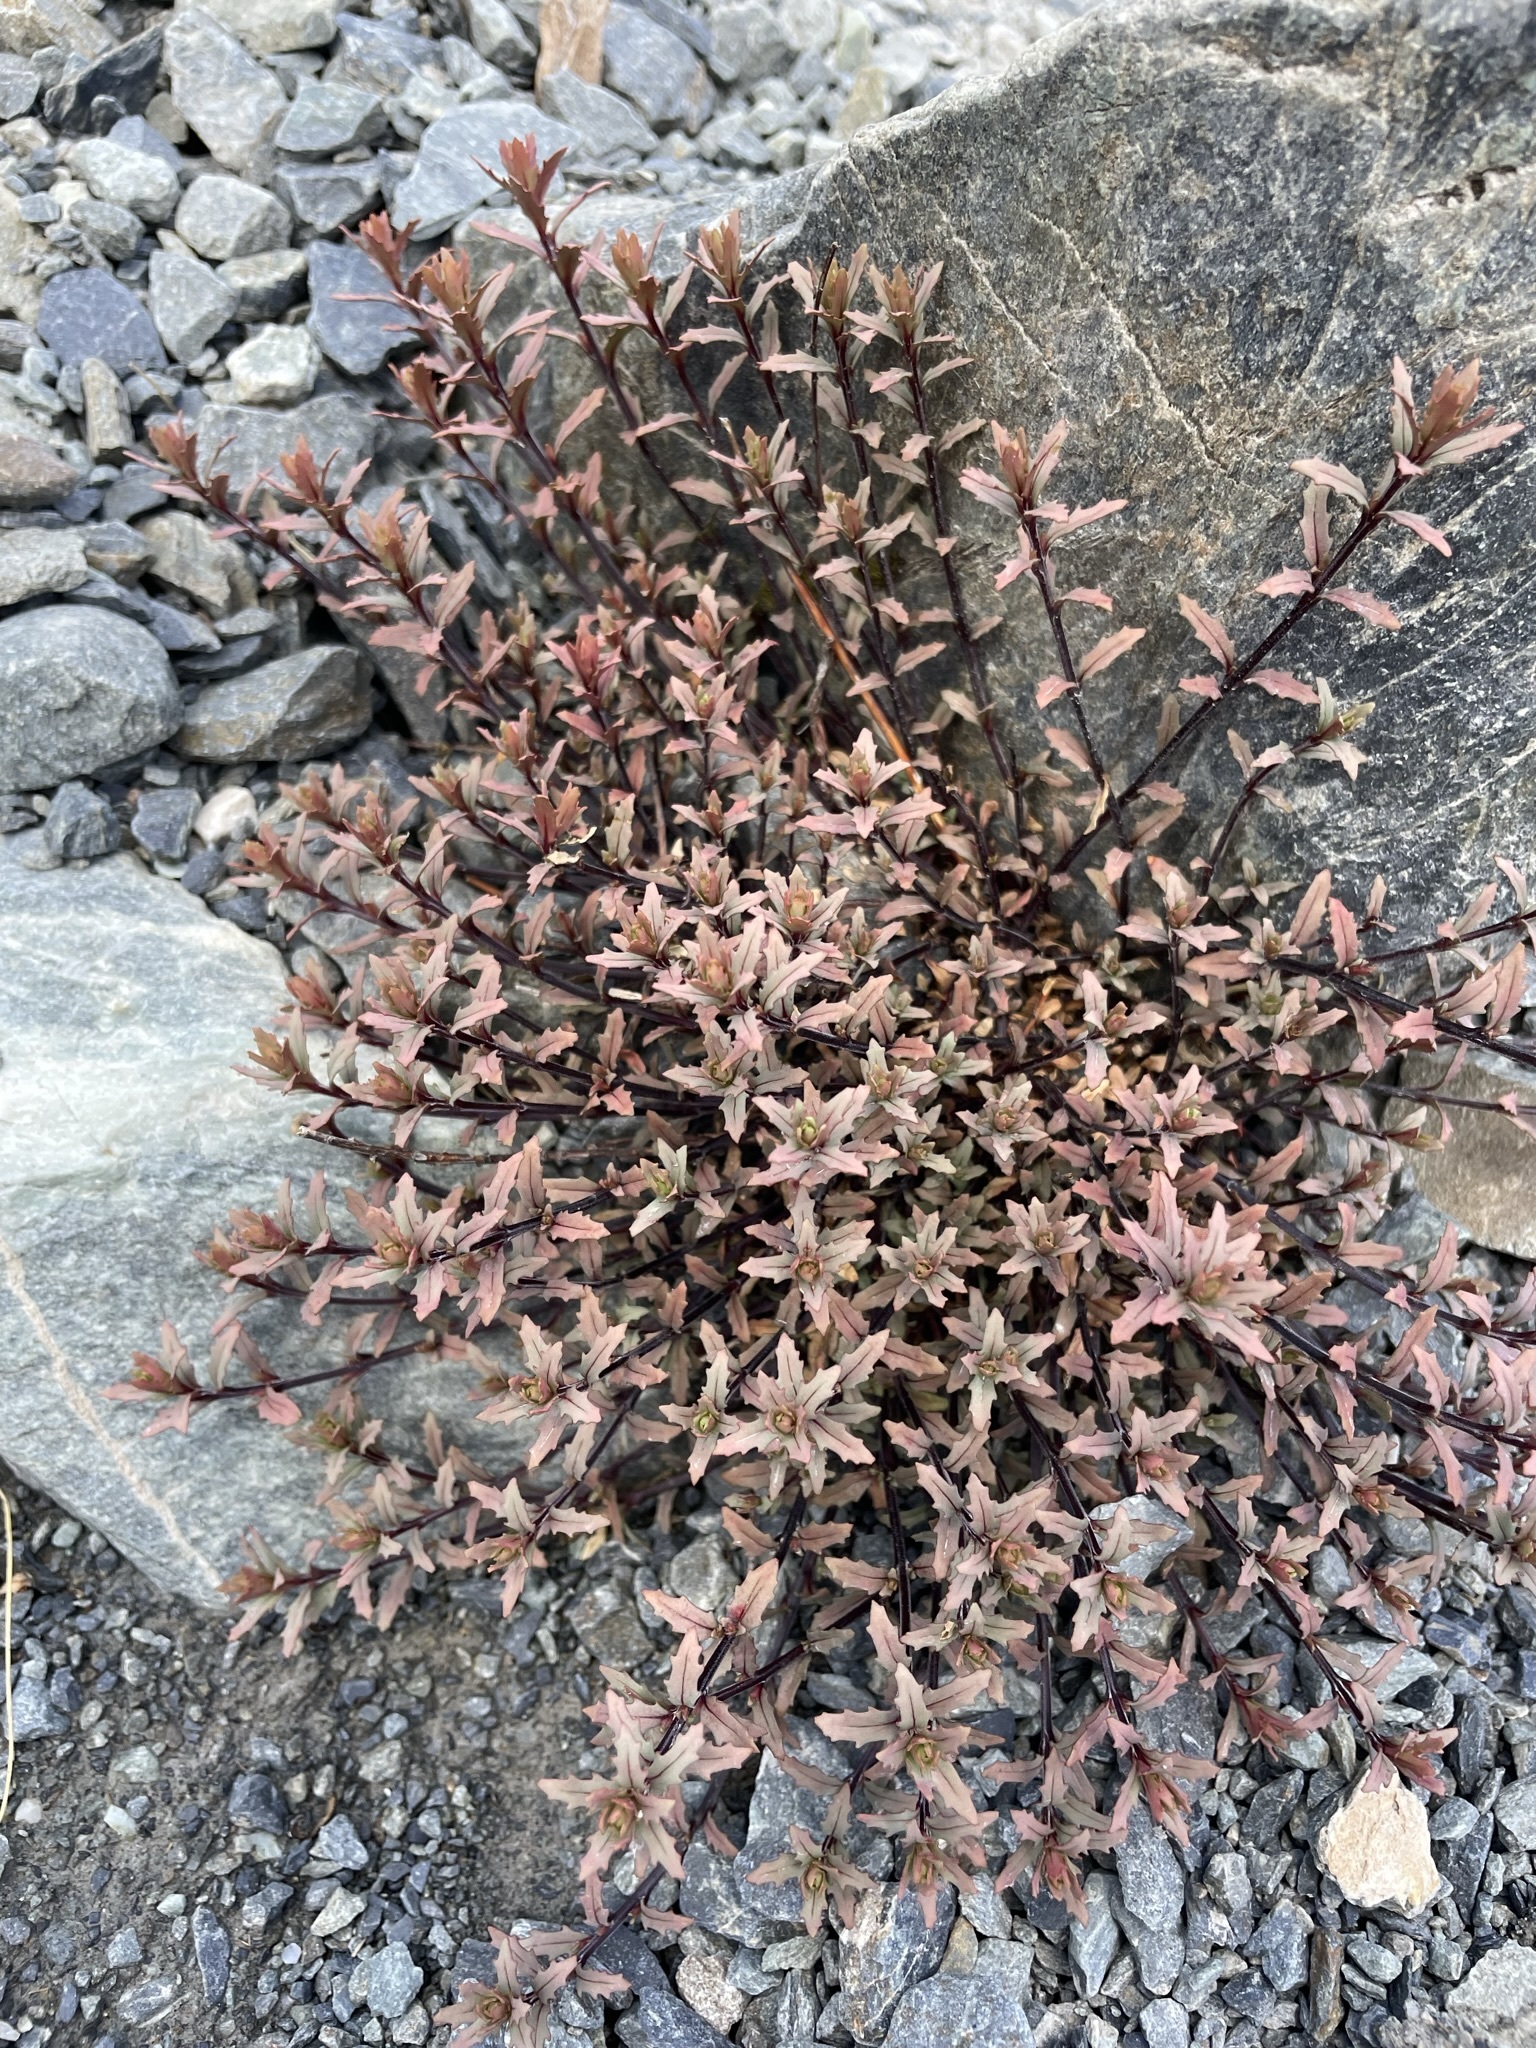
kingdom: Plantae
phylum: Tracheophyta
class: Magnoliopsida
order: Myrtales
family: Onagraceae
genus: Epilobium
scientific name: Epilobium melanocaulon
